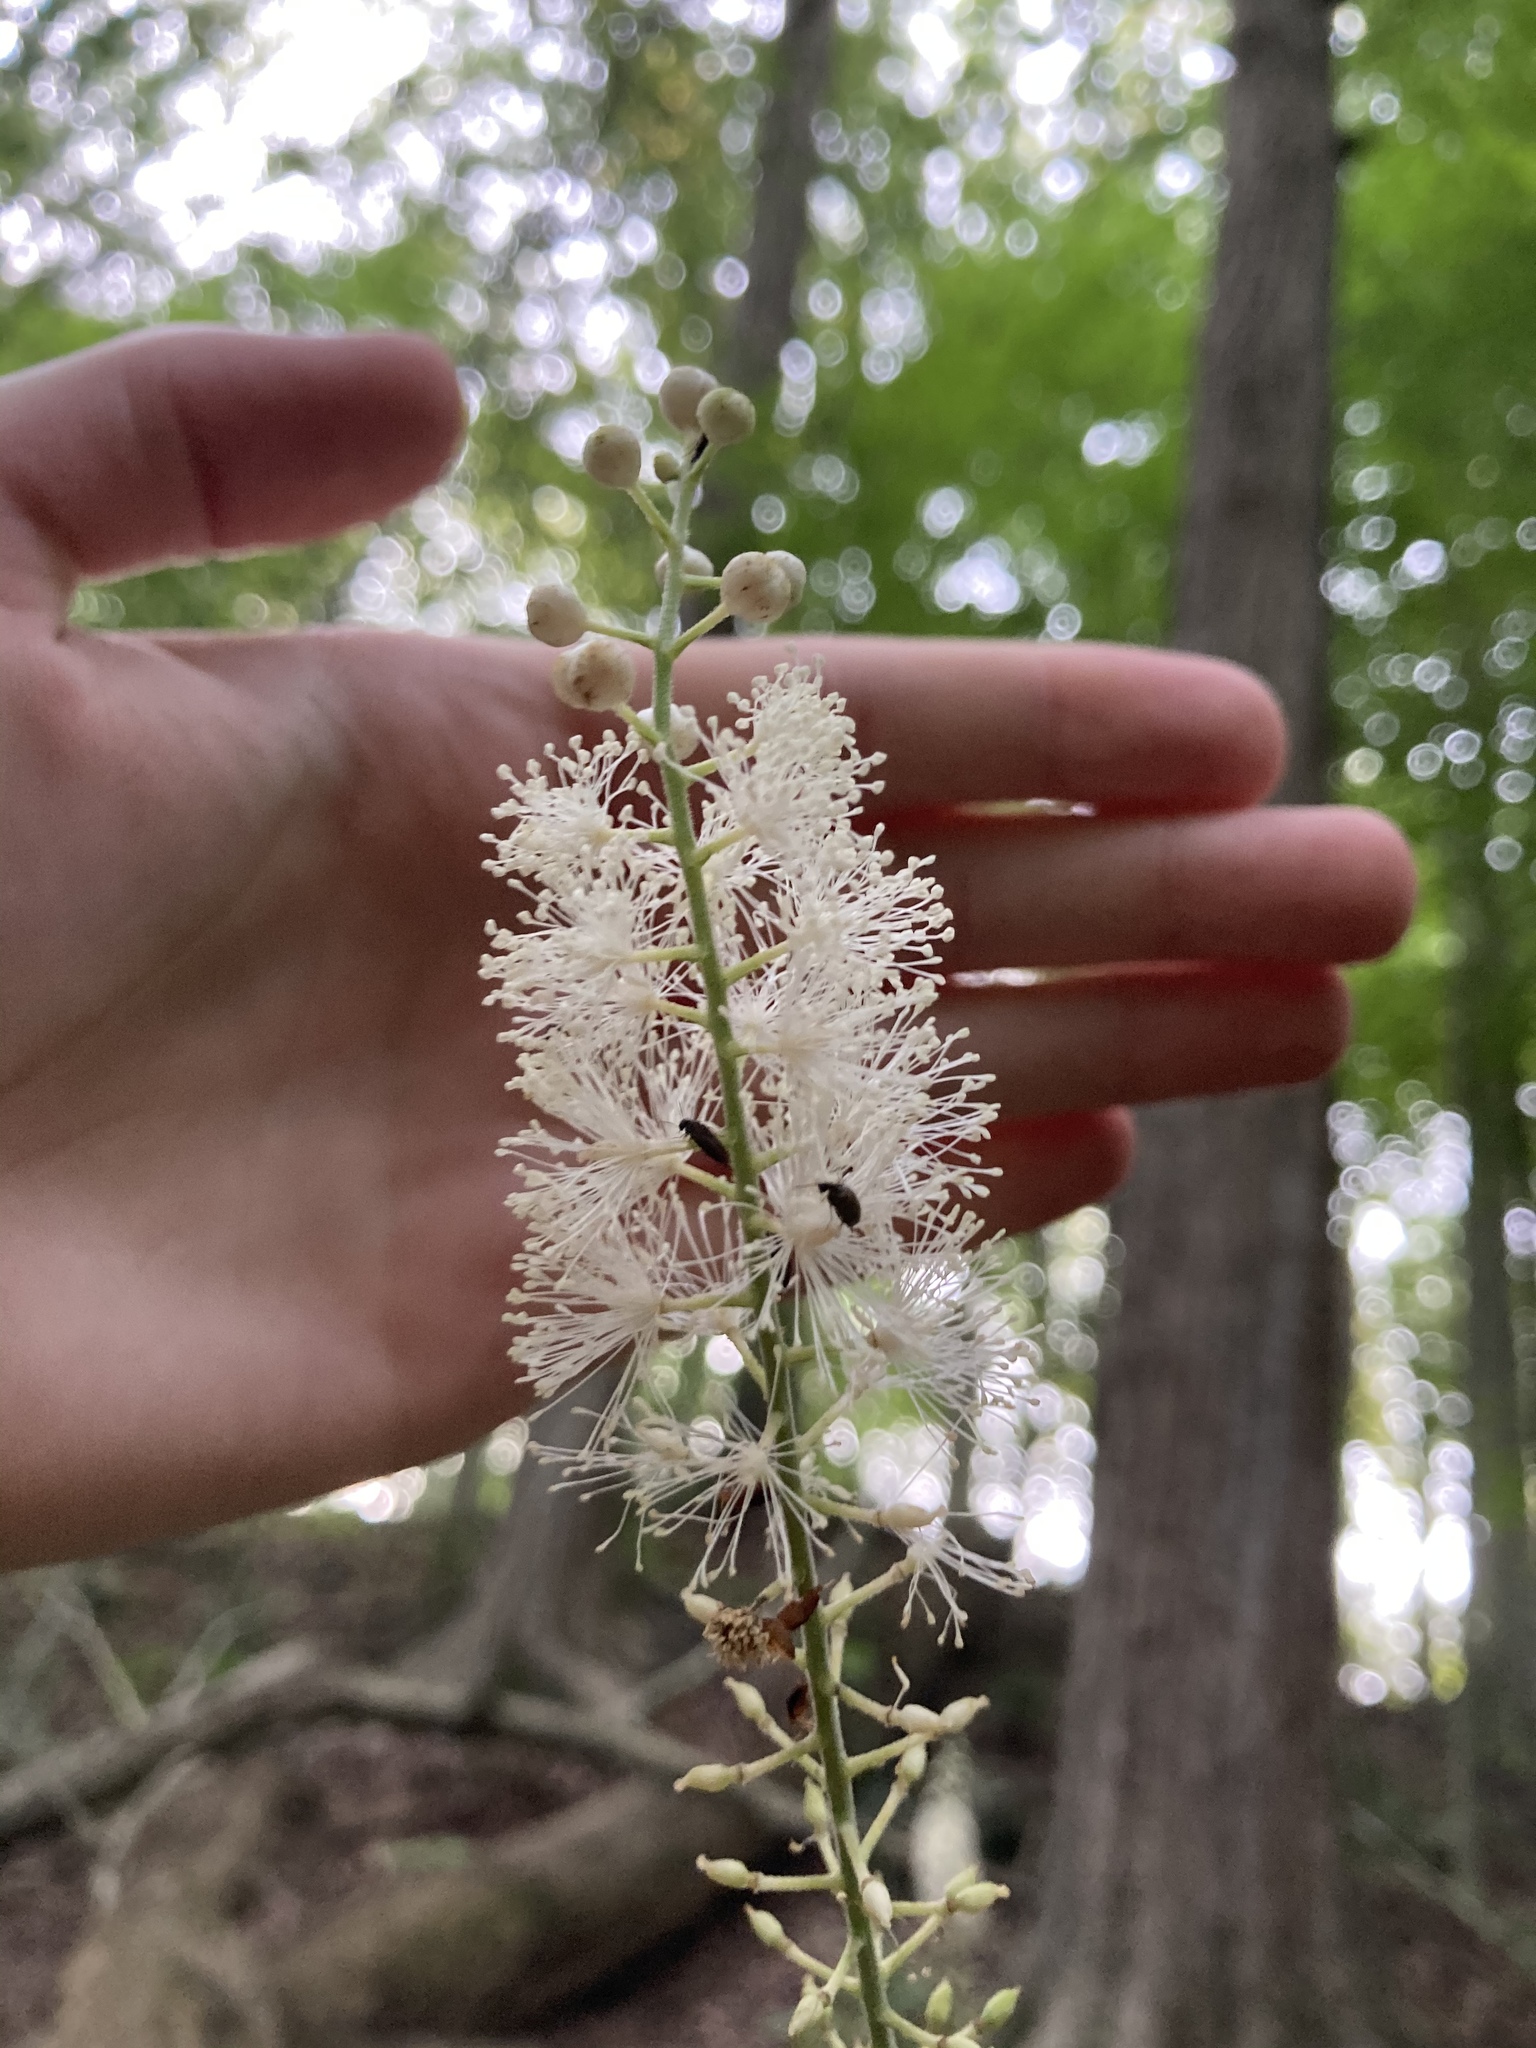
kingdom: Plantae
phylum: Tracheophyta
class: Magnoliopsida
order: Ranunculales
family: Ranunculaceae
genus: Actaea
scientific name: Actaea racemosa
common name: Black cohosh
